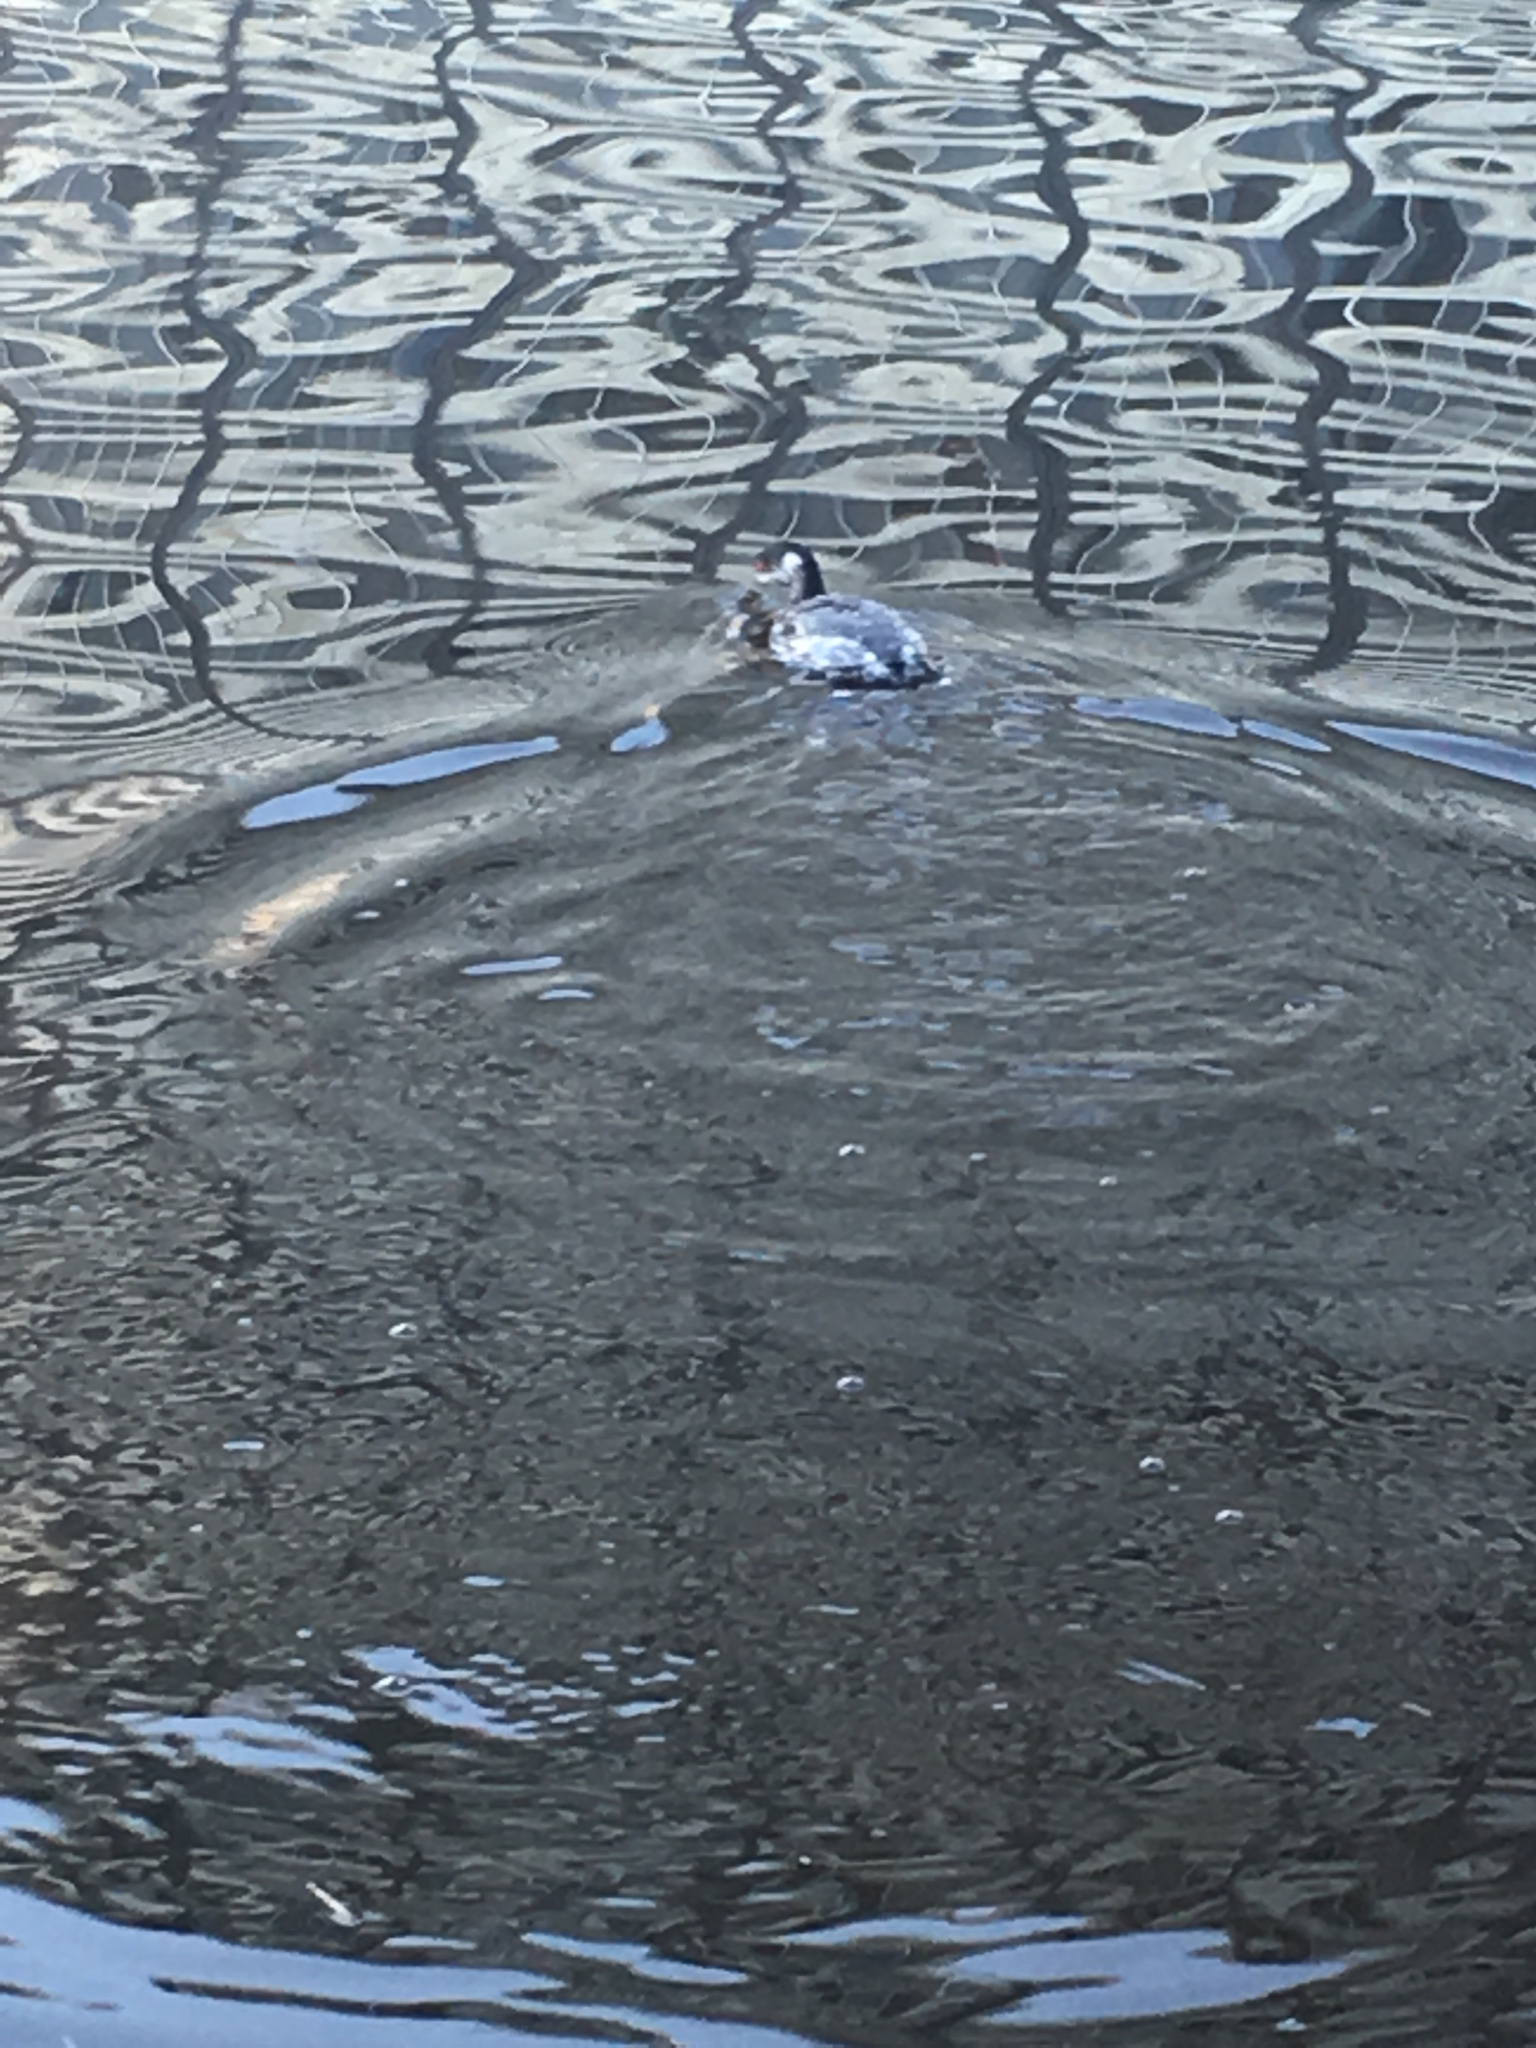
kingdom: Animalia
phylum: Chordata
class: Aves
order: Podicipediformes
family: Podicipedidae
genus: Podiceps
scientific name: Podiceps nigricollis
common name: Black-necked grebe
